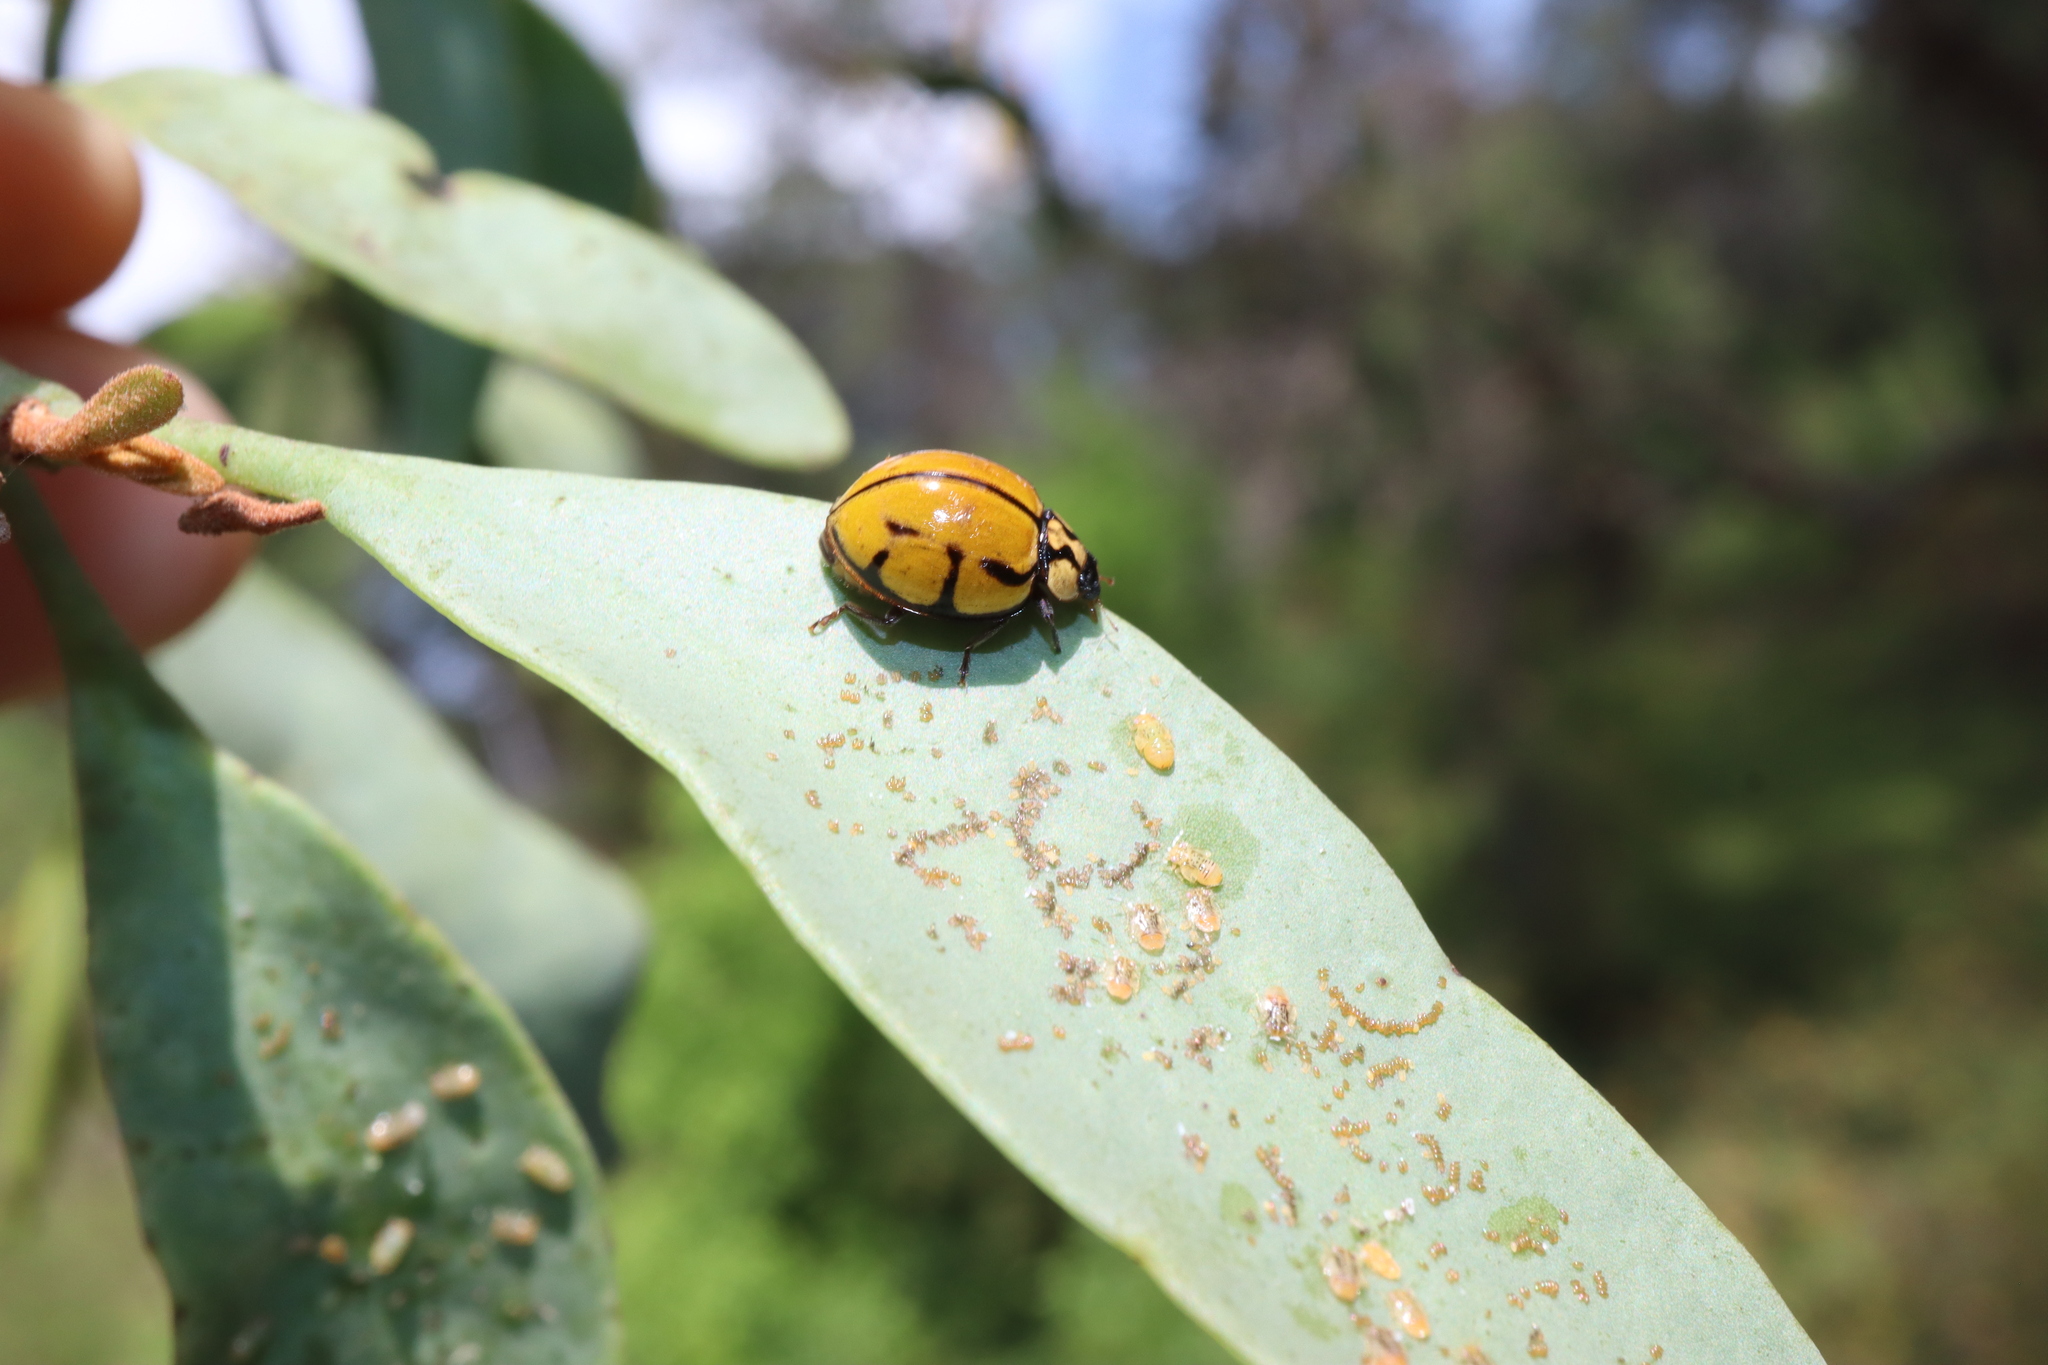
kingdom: Animalia
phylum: Arthropoda
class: Insecta
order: Coleoptera
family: Coccinellidae
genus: Harmonia
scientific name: Harmonia
